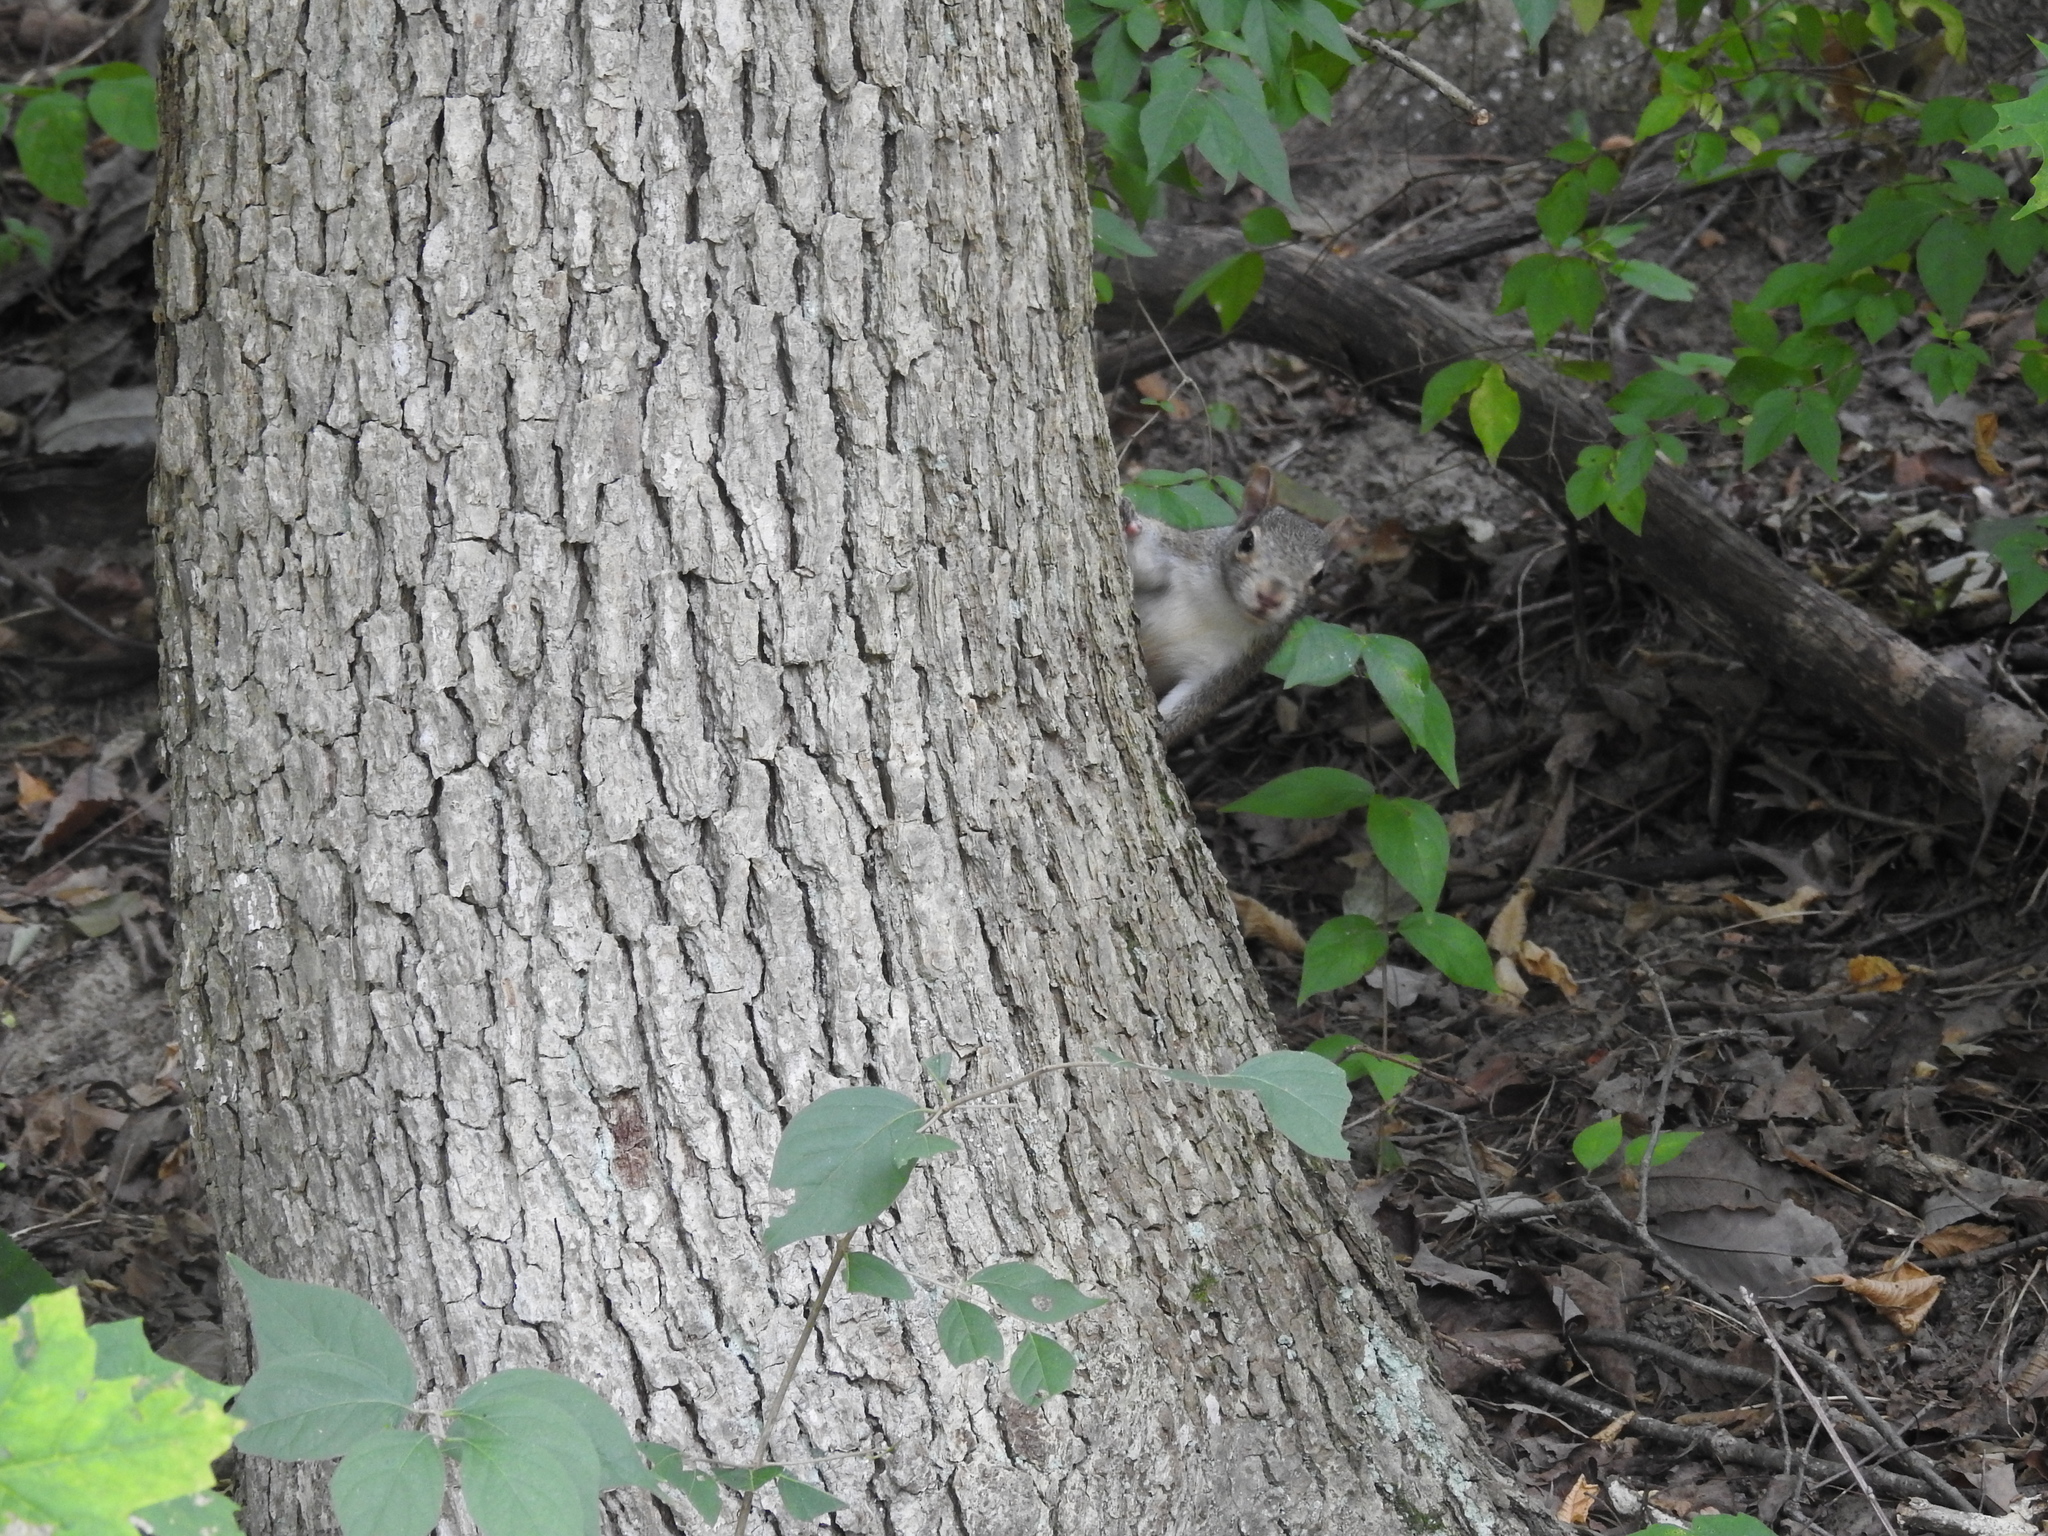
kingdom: Animalia
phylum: Chordata
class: Mammalia
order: Rodentia
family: Sciuridae
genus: Sciurus
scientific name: Sciurus carolinensis
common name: Eastern gray squirrel
